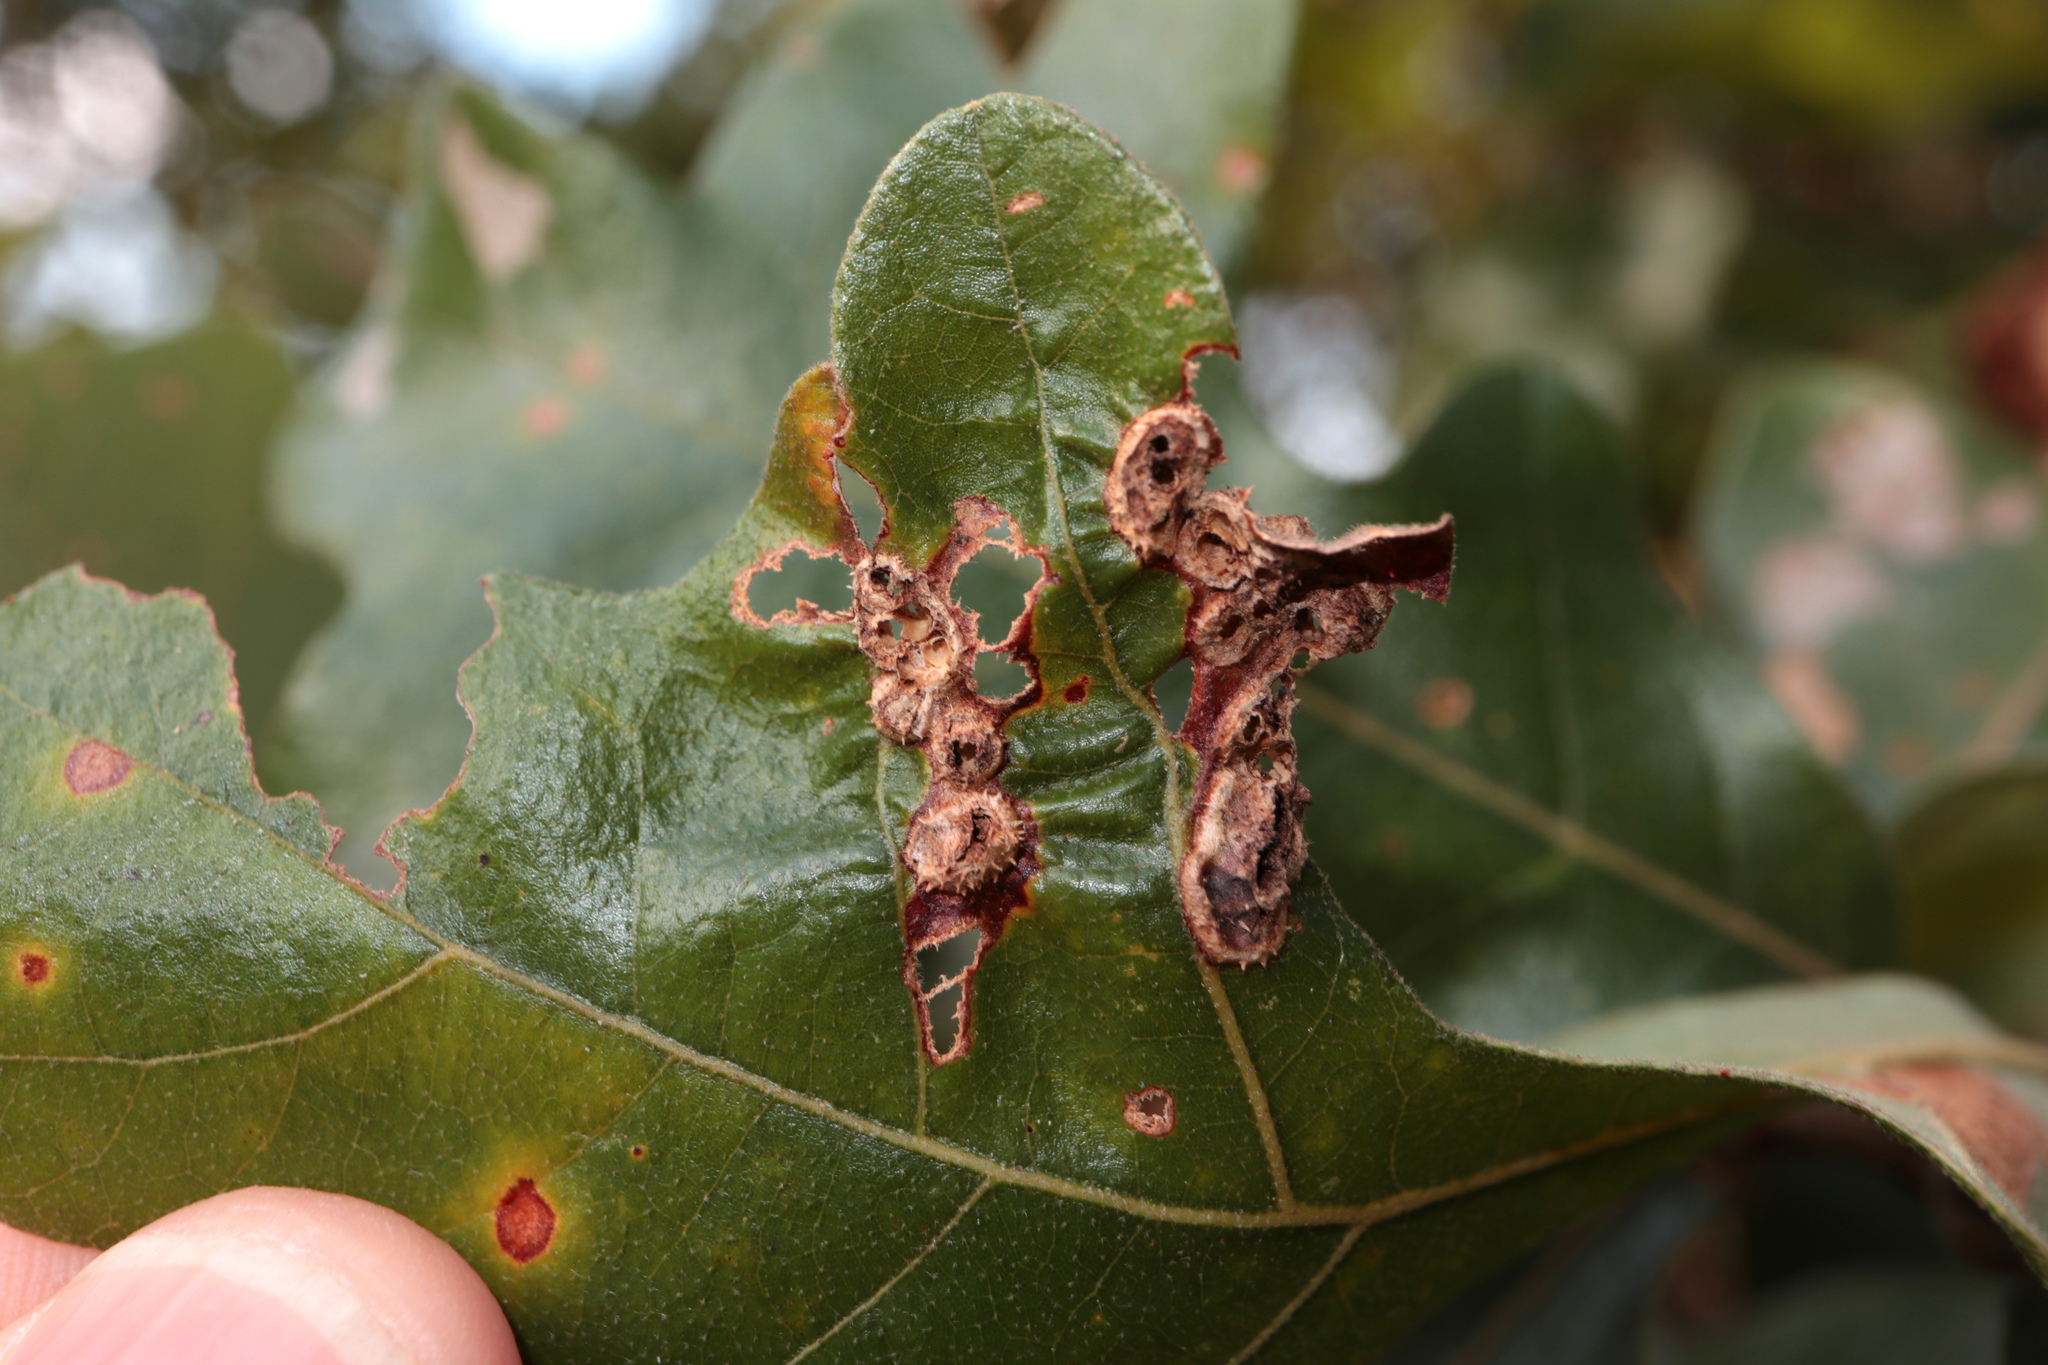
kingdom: Animalia
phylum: Arthropoda
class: Insecta
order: Hymenoptera
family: Cynipidae
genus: Neuroterus
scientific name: Neuroterus quercusirregularis
